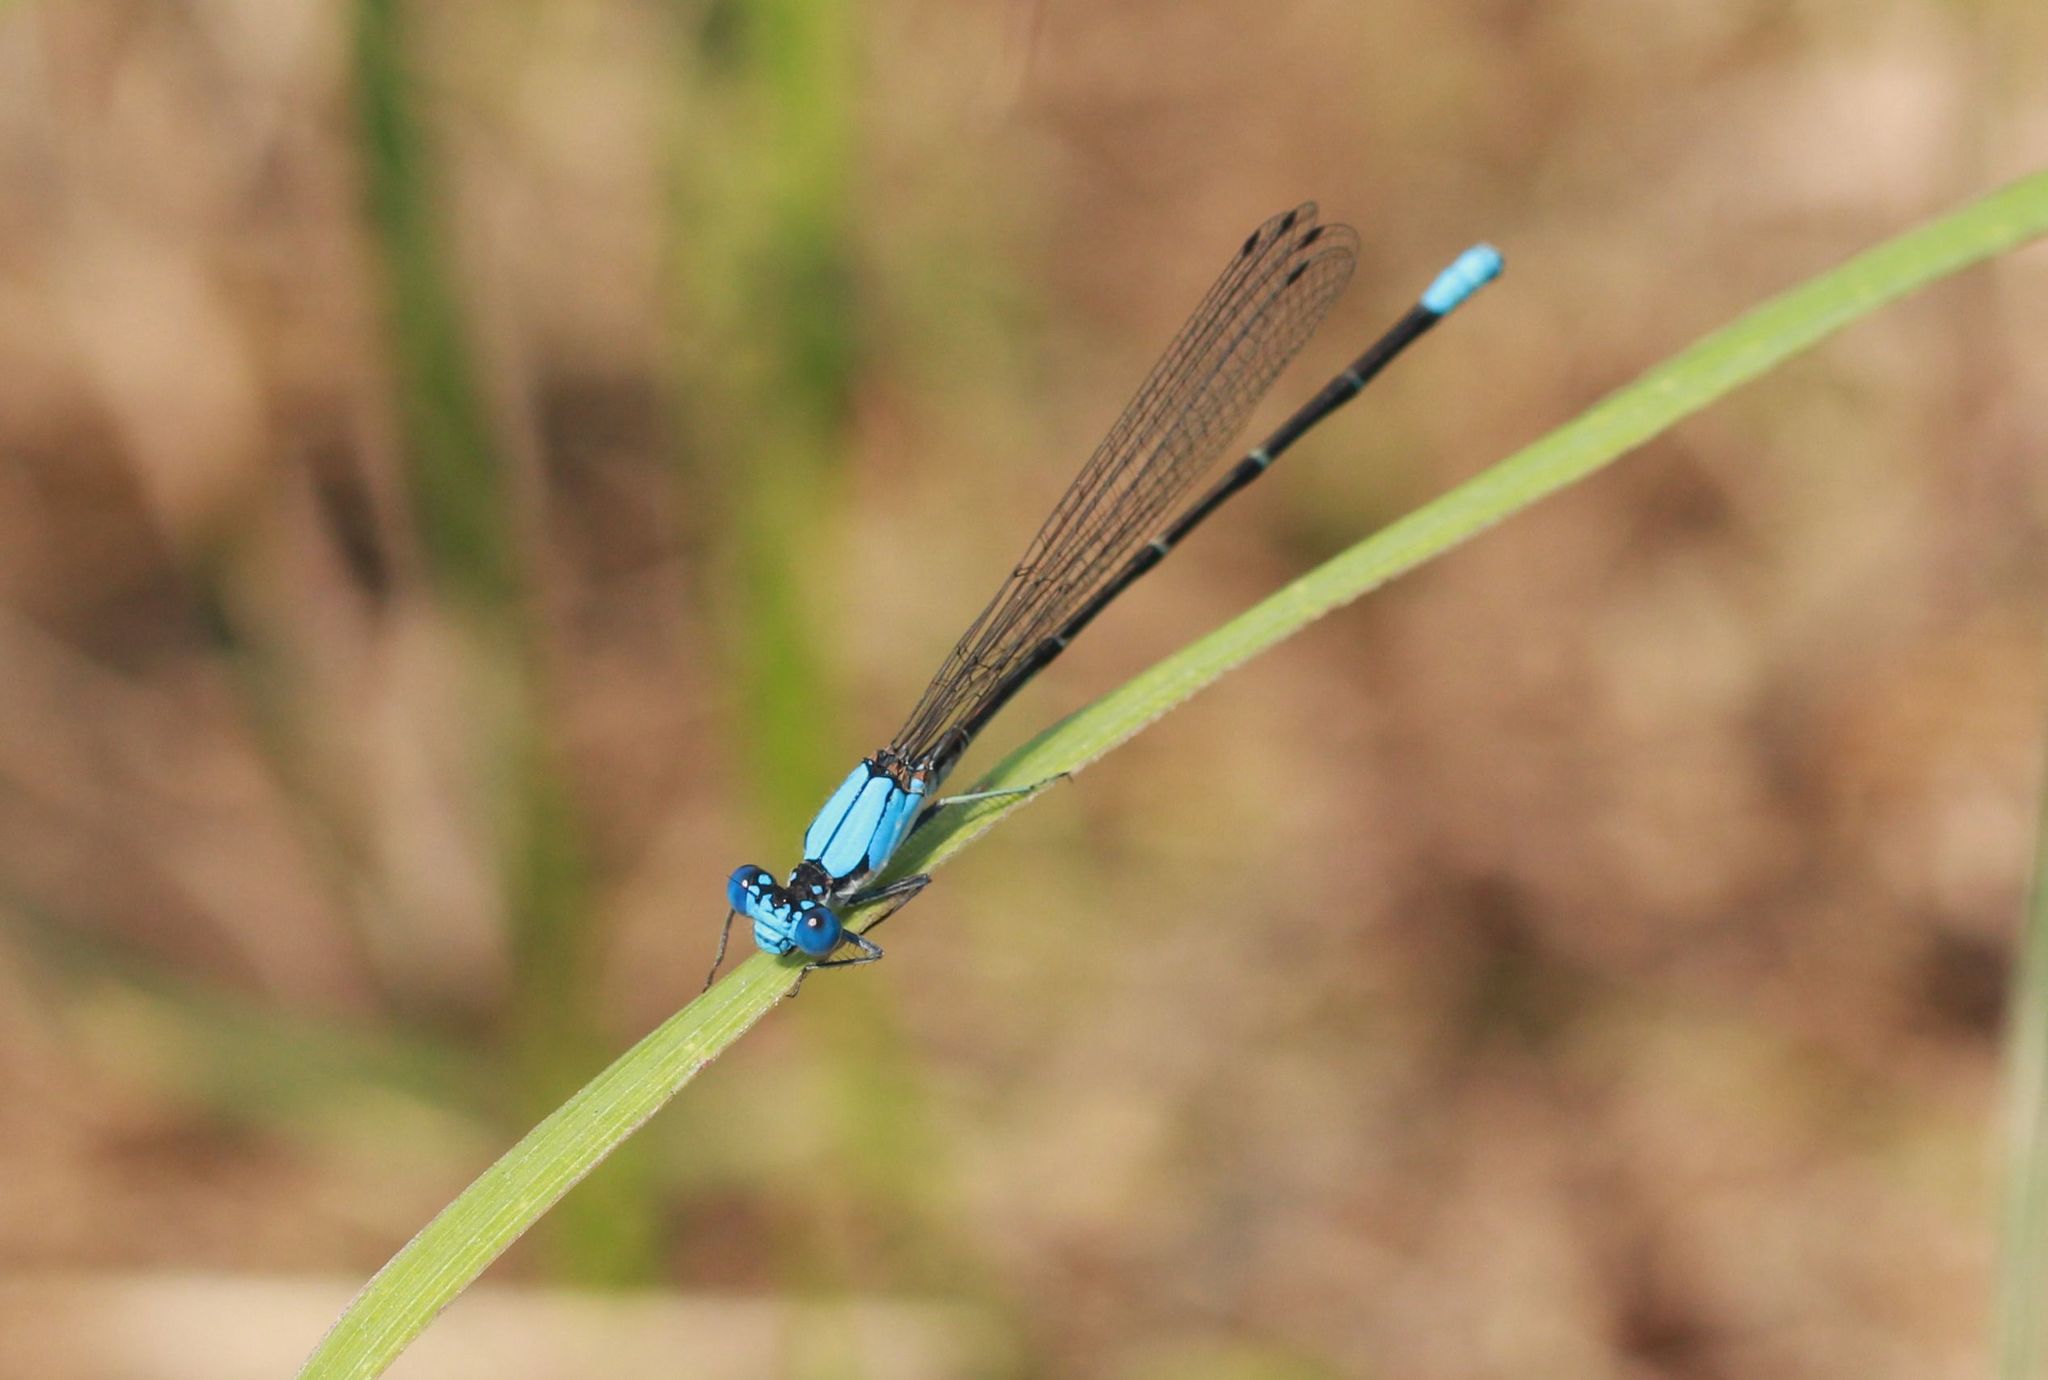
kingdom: Animalia
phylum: Arthropoda
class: Insecta
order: Odonata
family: Coenagrionidae
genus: Argia
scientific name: Argia apicalis
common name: Blue-fronted dancer
